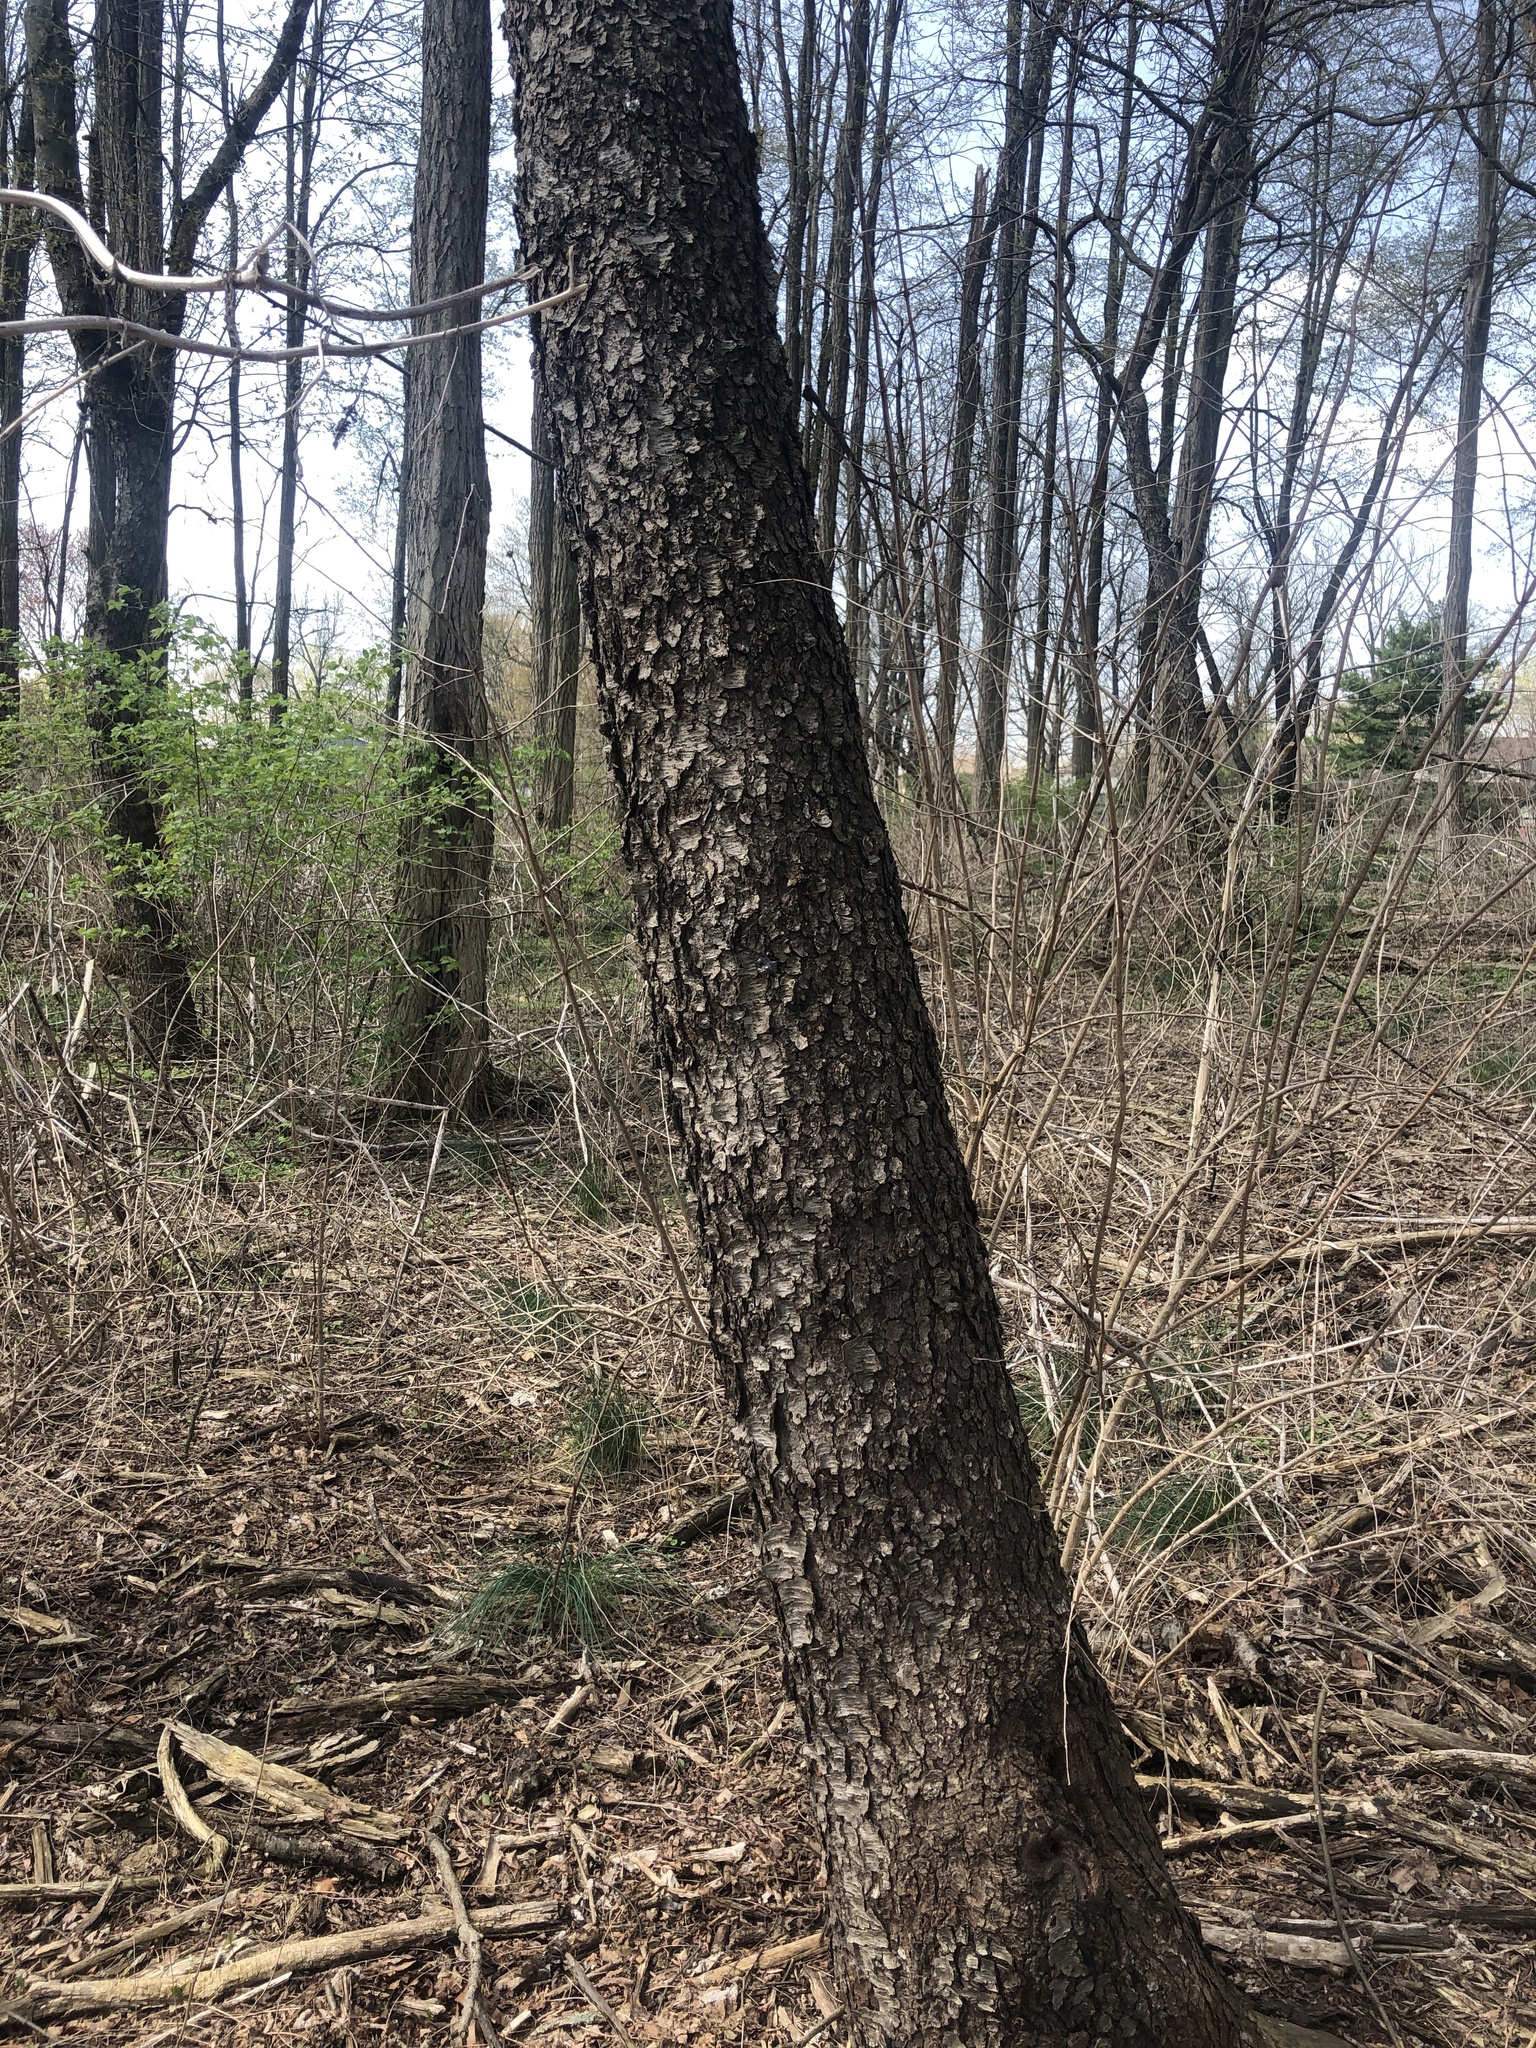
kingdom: Plantae
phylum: Tracheophyta
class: Magnoliopsida
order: Rosales
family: Rosaceae
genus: Prunus
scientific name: Prunus serotina
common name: Black cherry
